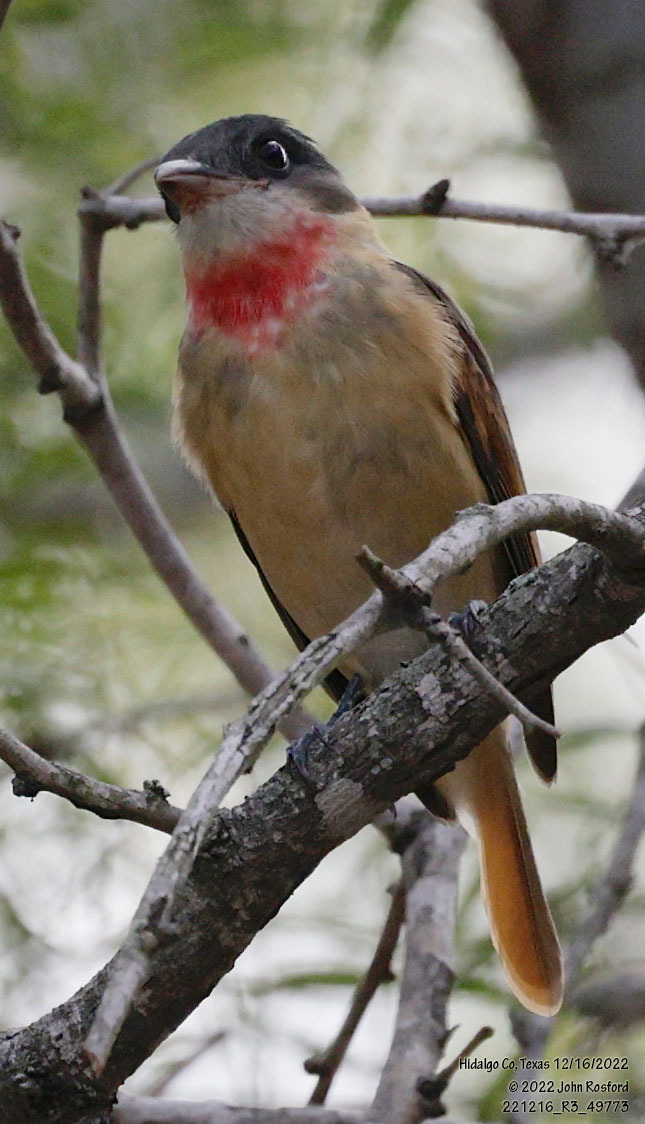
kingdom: Animalia
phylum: Chordata
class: Aves
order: Passeriformes
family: Cotingidae
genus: Pachyramphus
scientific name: Pachyramphus aglaiae
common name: Rose-throated becard
